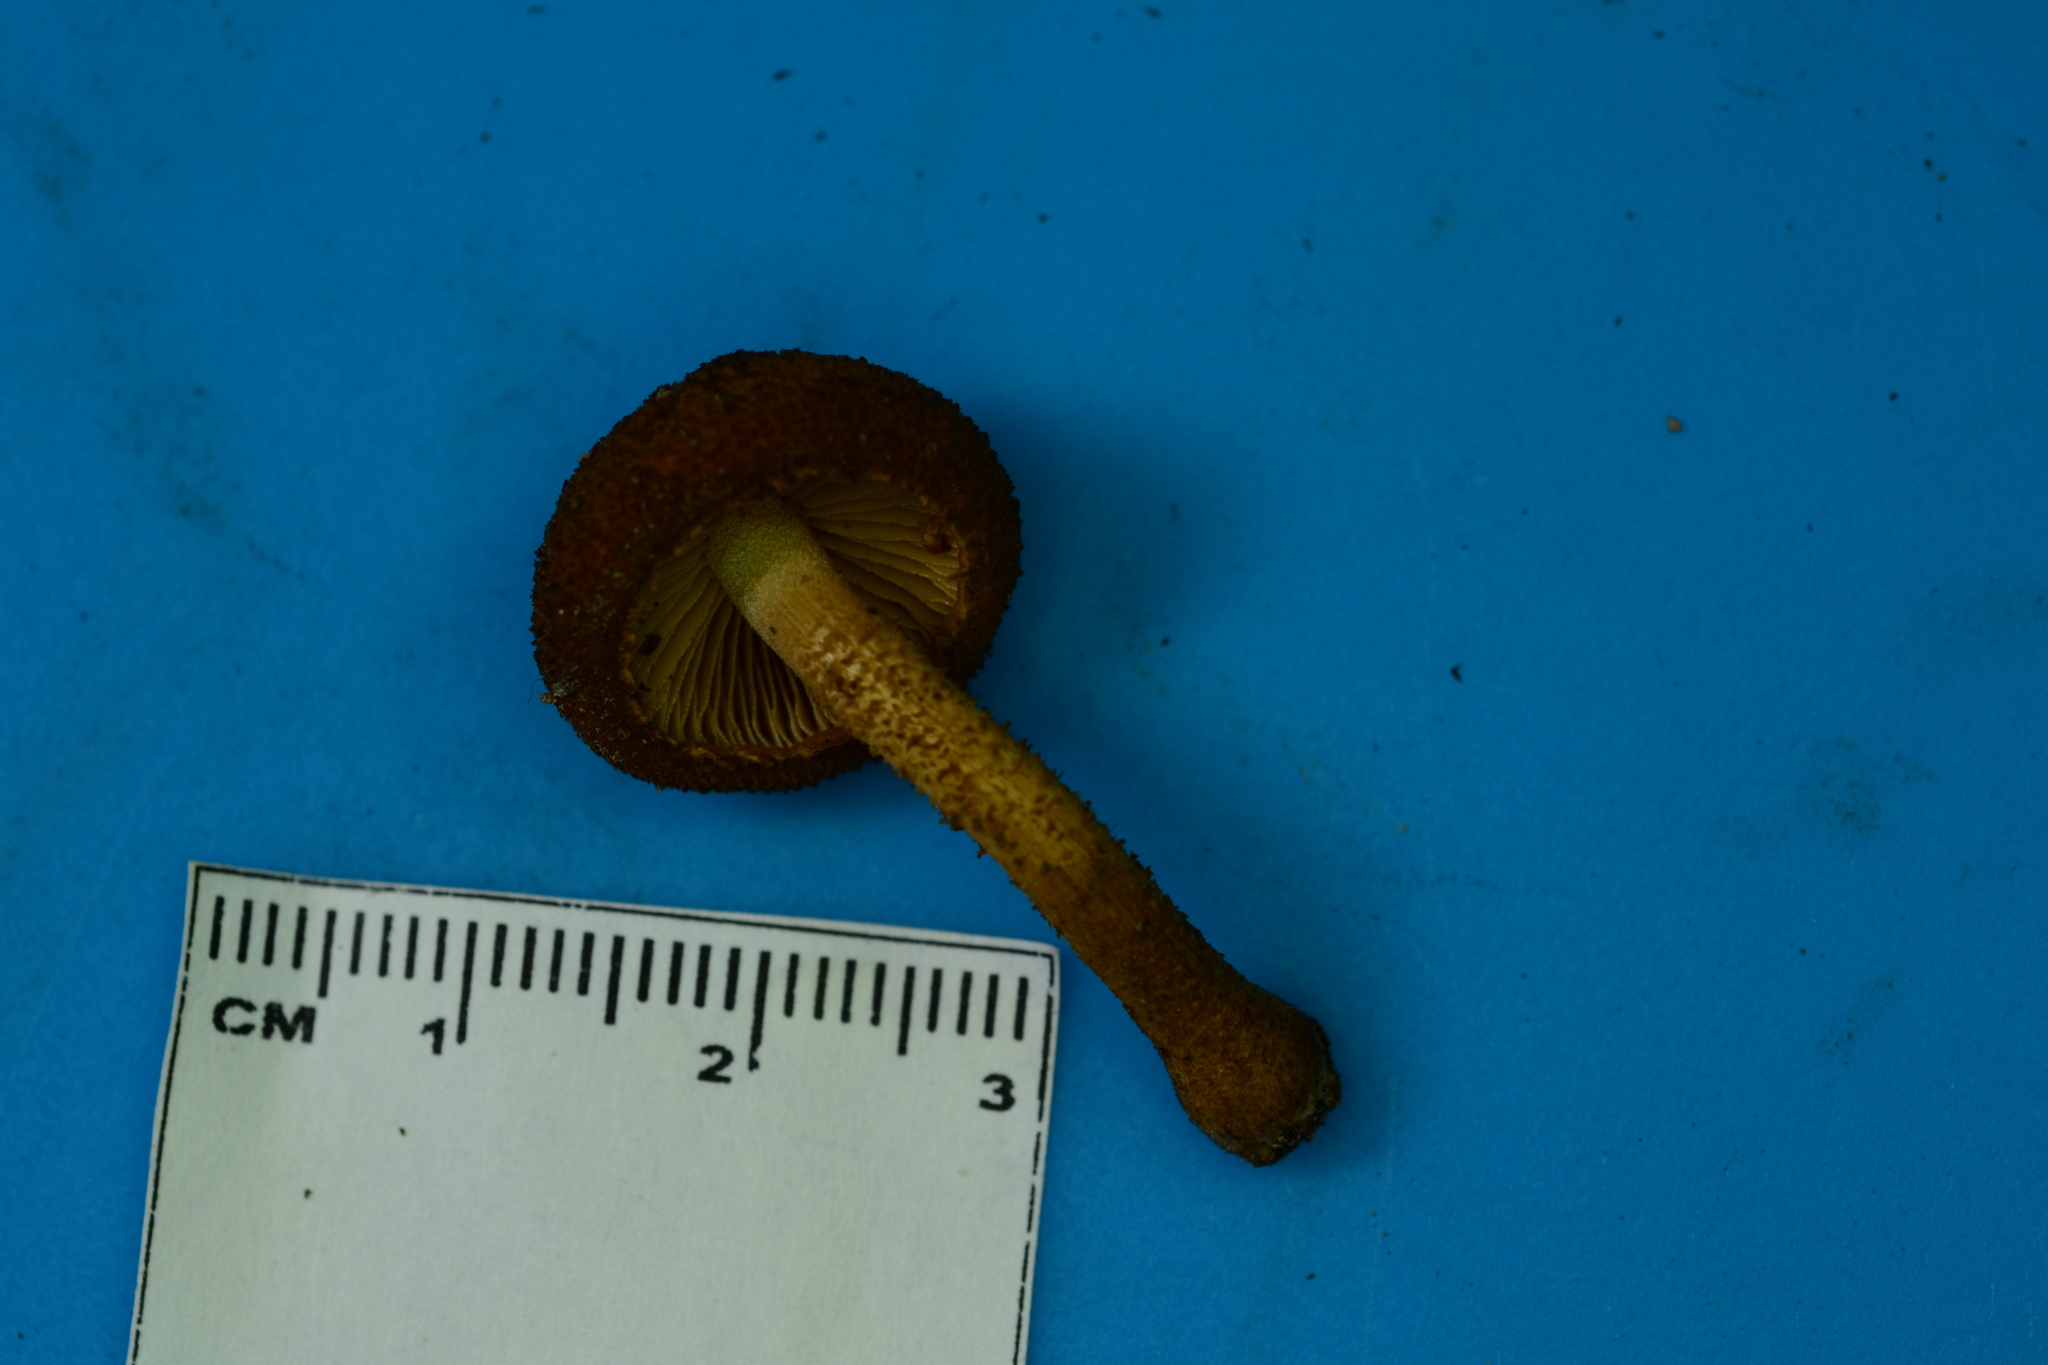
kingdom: Fungi
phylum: Basidiomycota
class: Agaricomycetes
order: Agaricales
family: Tubariaceae
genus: Flammulaster
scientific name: Flammulaster erinaceellus
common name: Powder-scale pholiota
